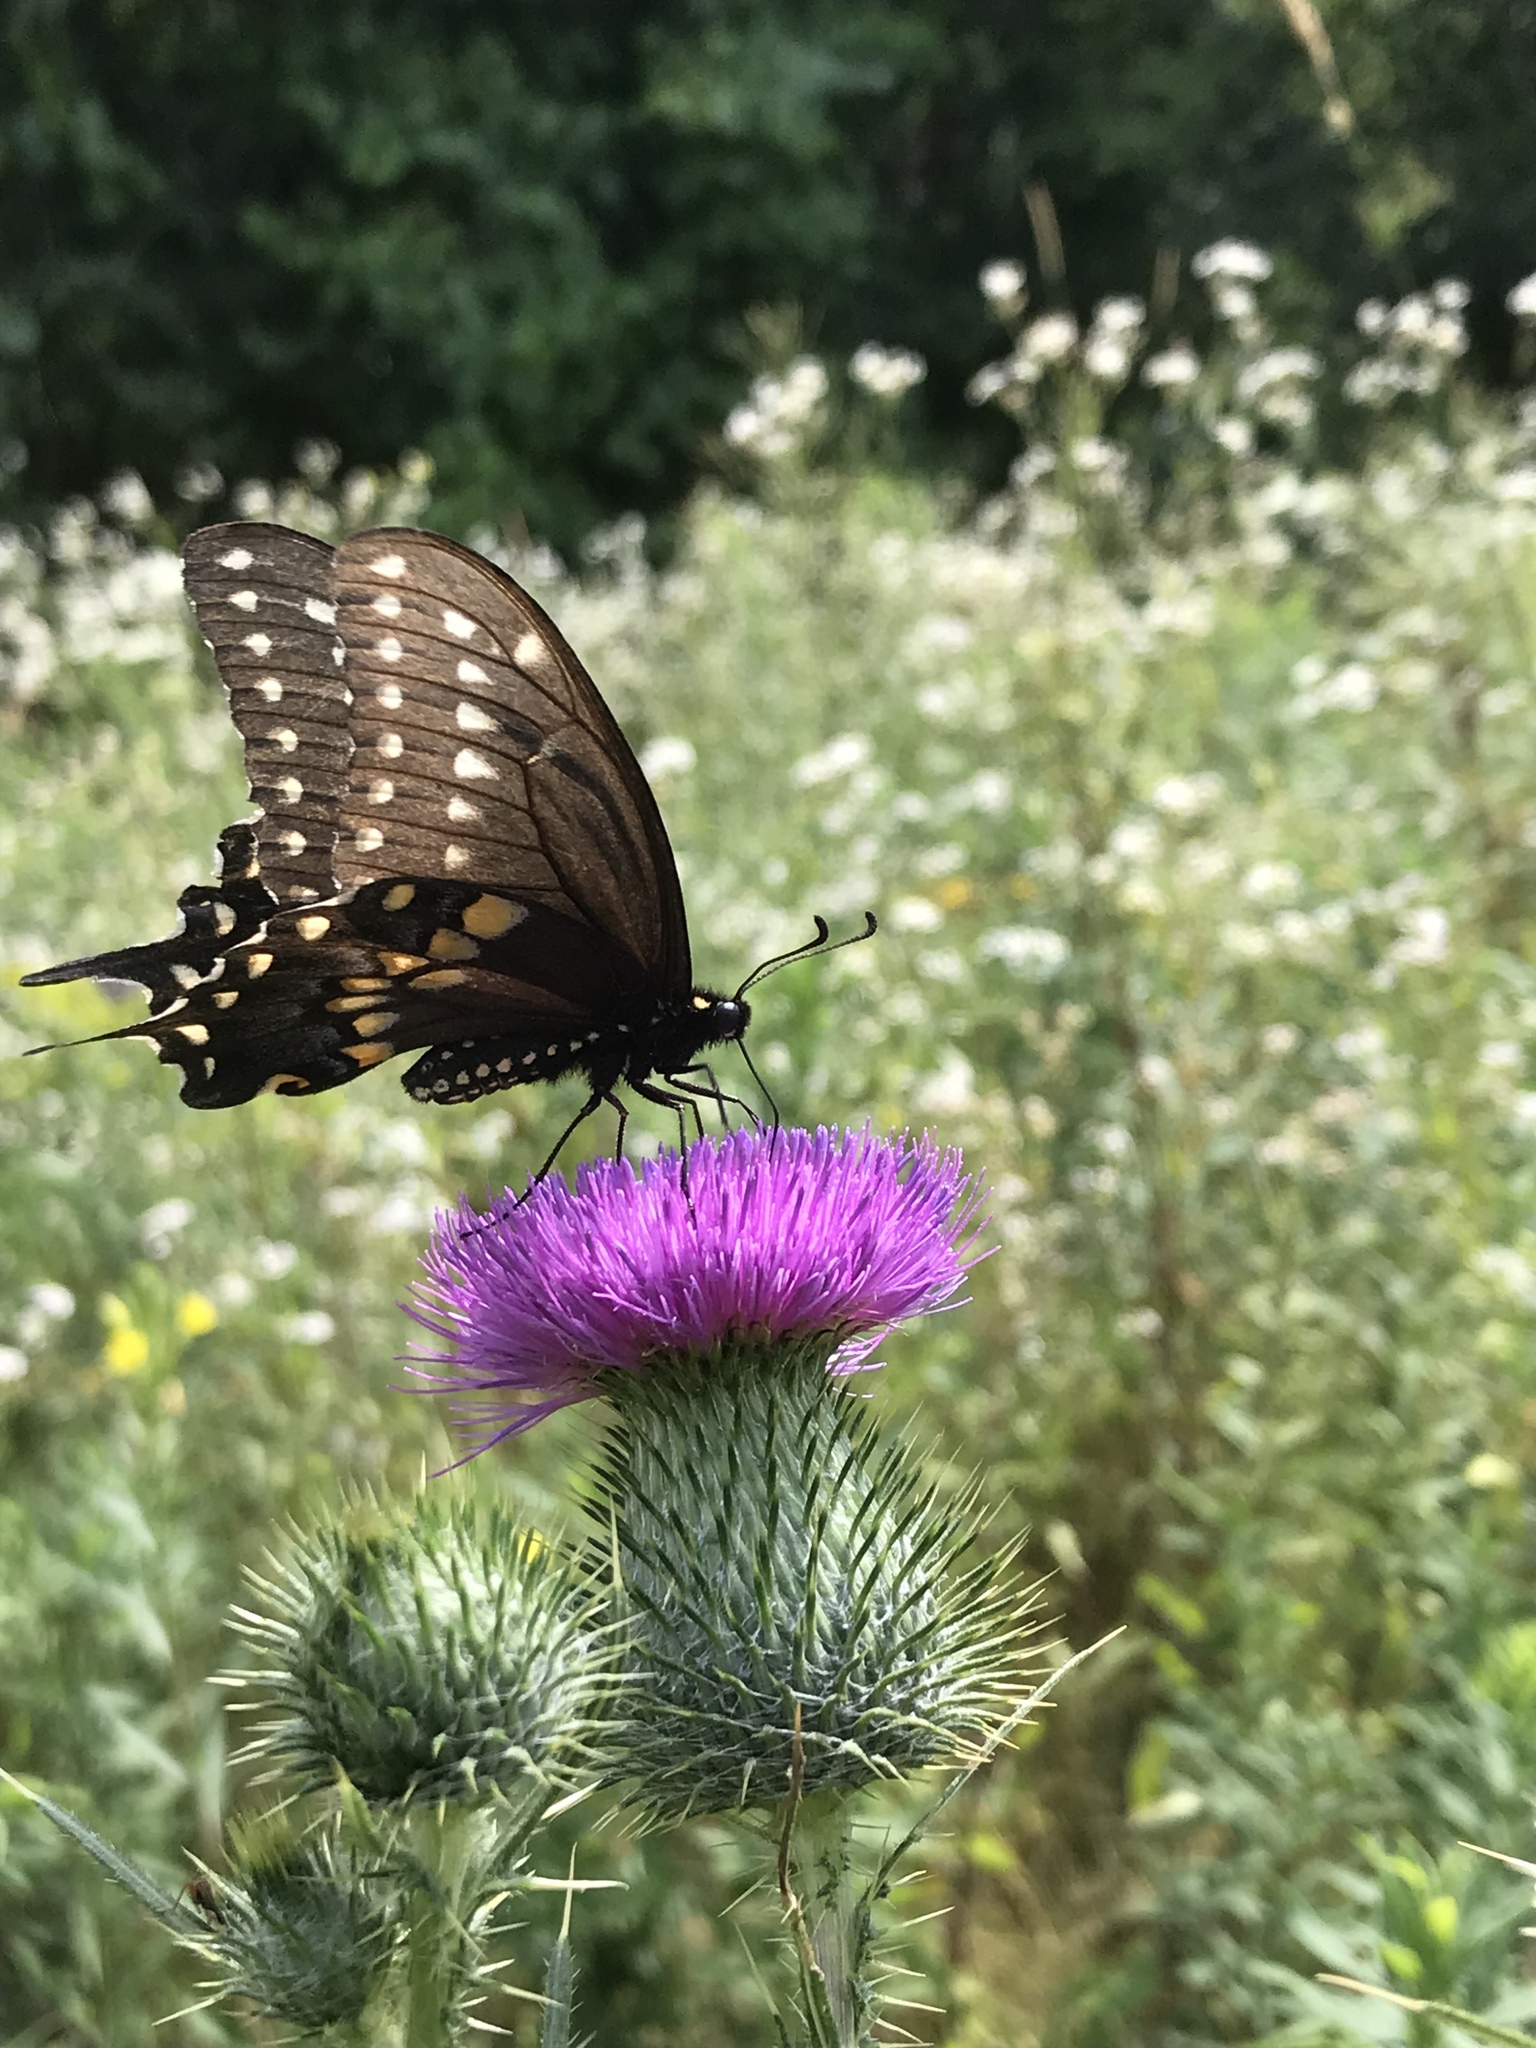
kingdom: Animalia
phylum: Arthropoda
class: Insecta
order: Lepidoptera
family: Papilionidae
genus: Papilio
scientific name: Papilio polyxenes
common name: Black swallowtail
